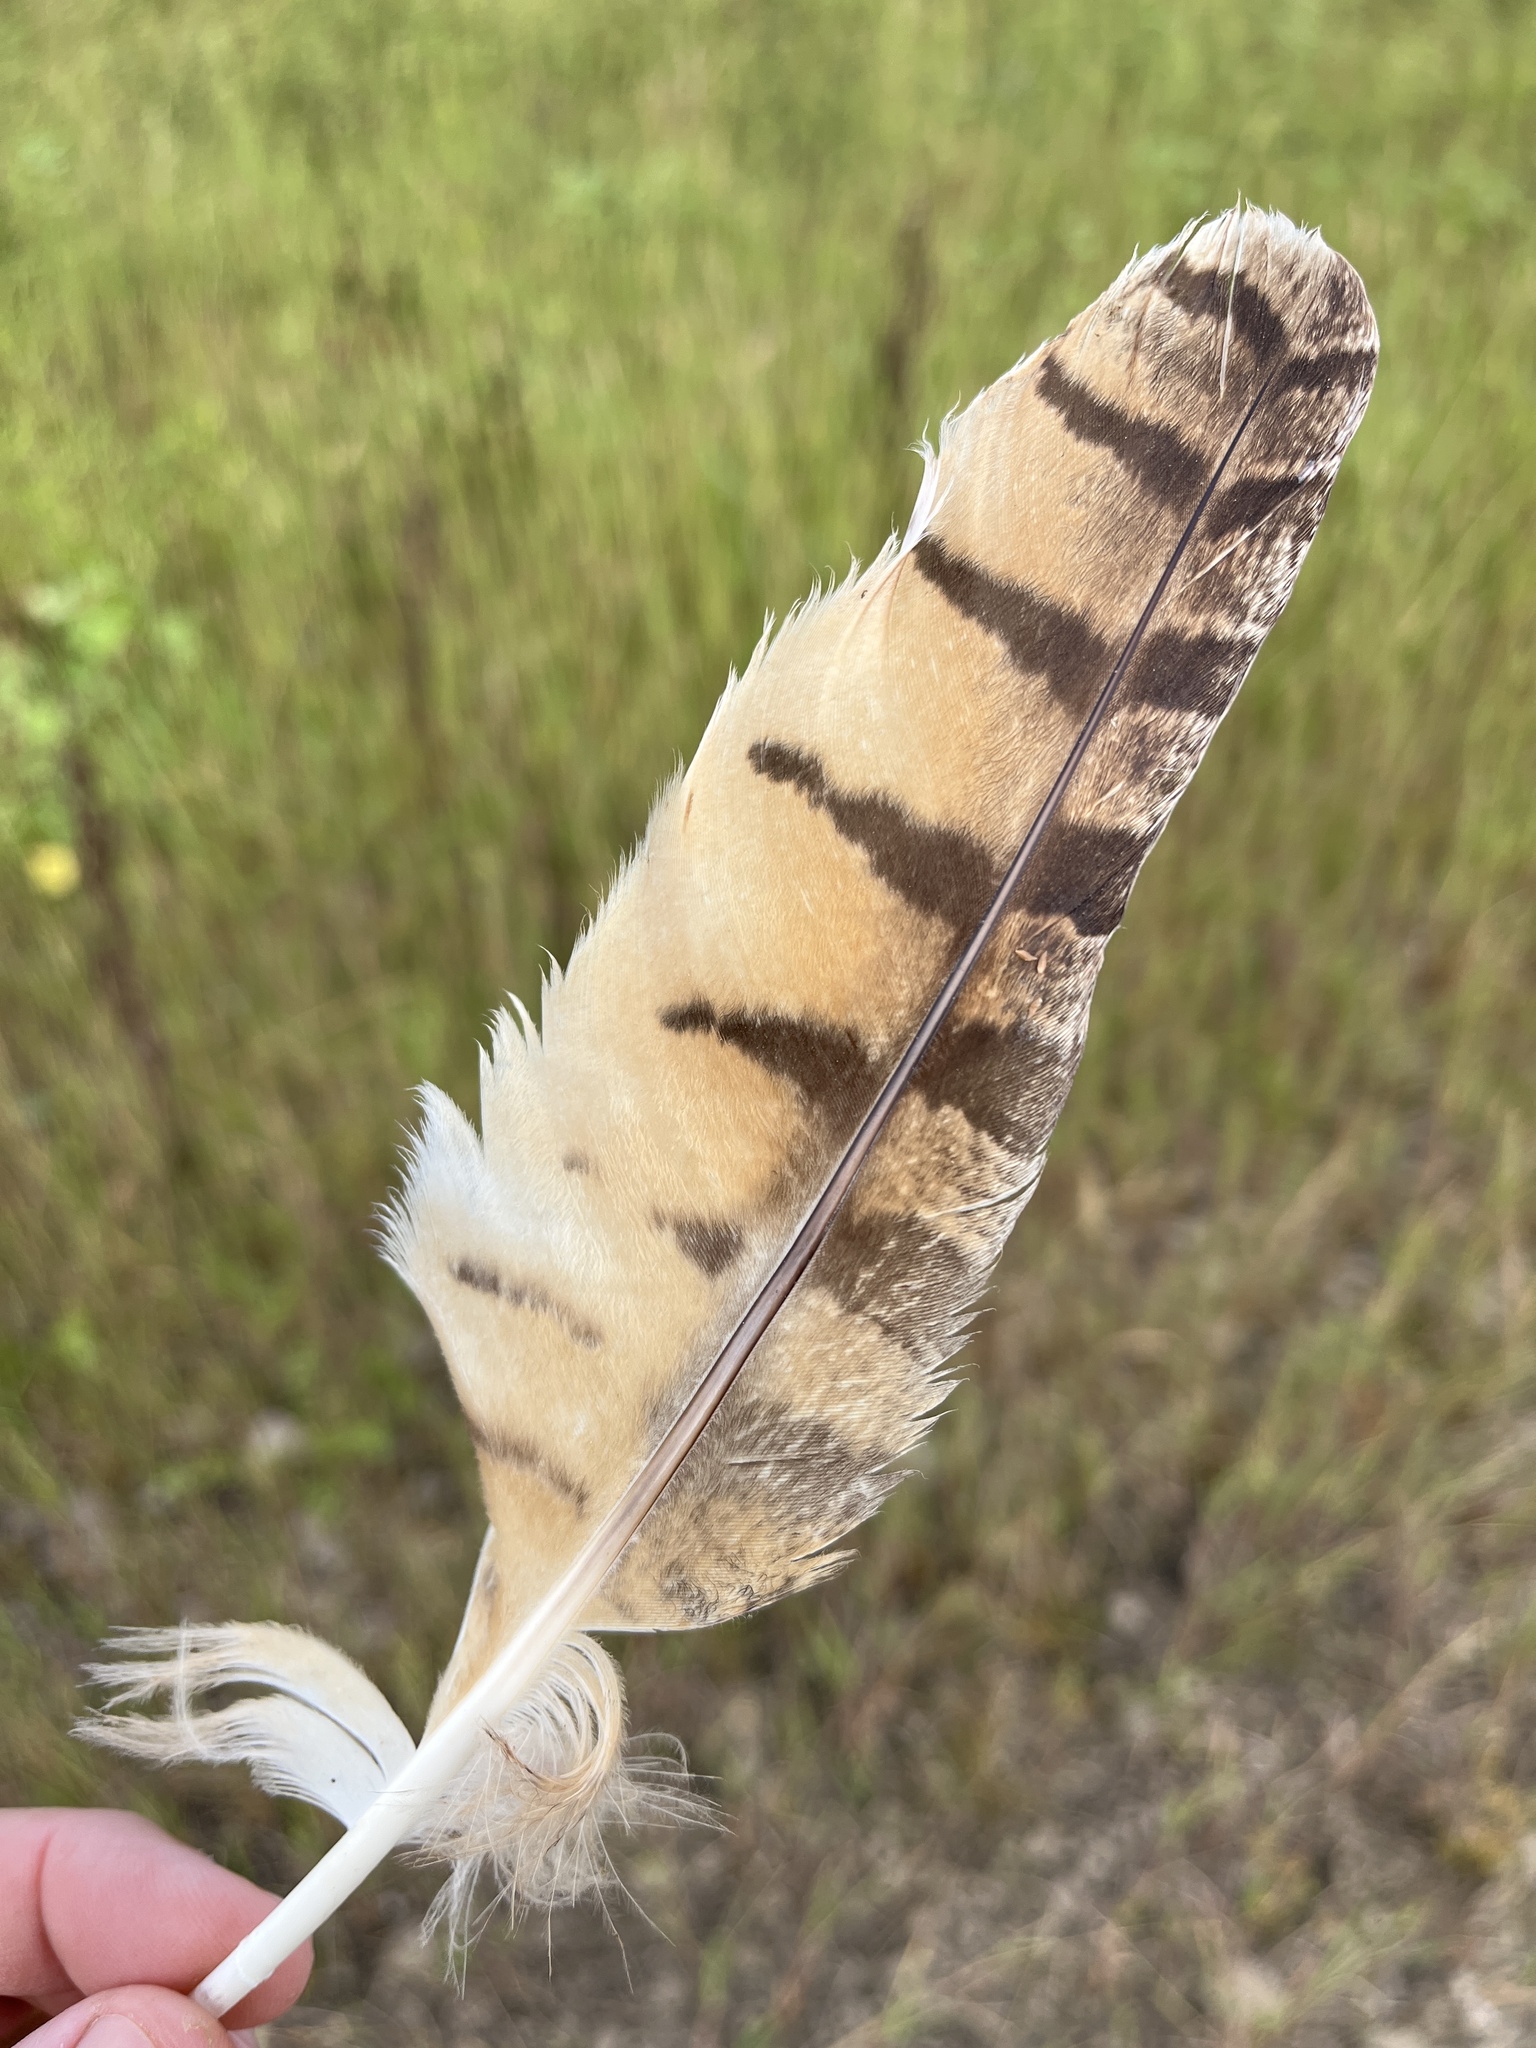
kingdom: Animalia
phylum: Chordata
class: Aves
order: Strigiformes
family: Strigidae
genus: Bubo
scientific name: Bubo virginianus
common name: Great horned owl
